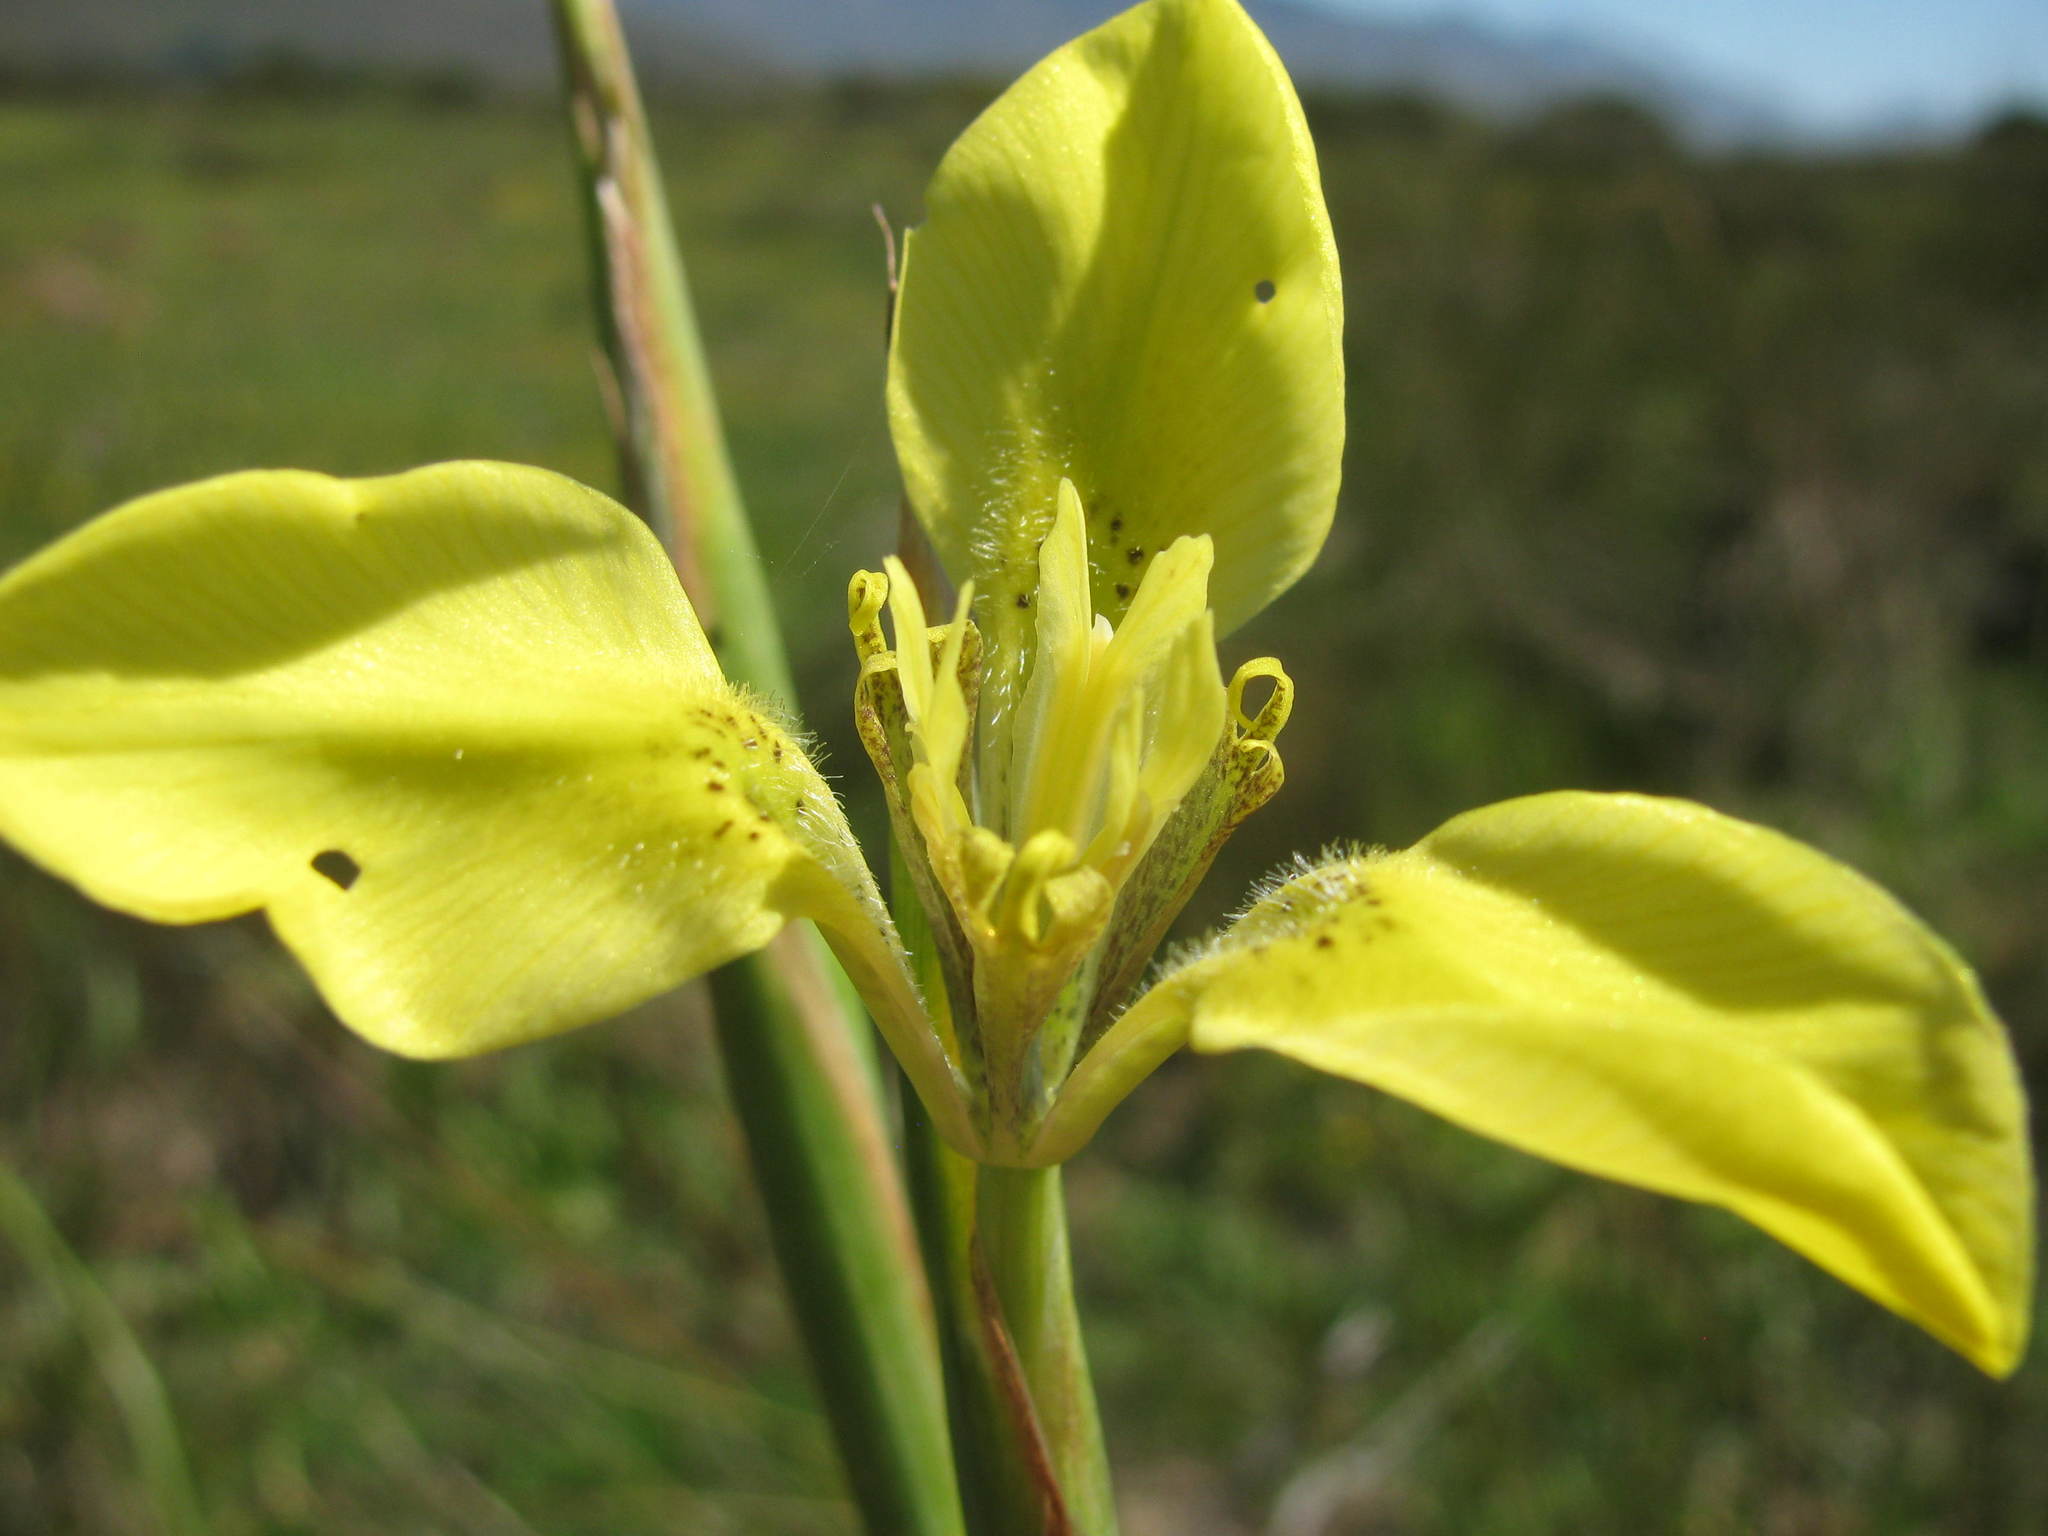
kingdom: Plantae
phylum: Tracheophyta
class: Liliopsida
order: Asparagales
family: Iridaceae
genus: Moraea
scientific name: Moraea bellendenii
